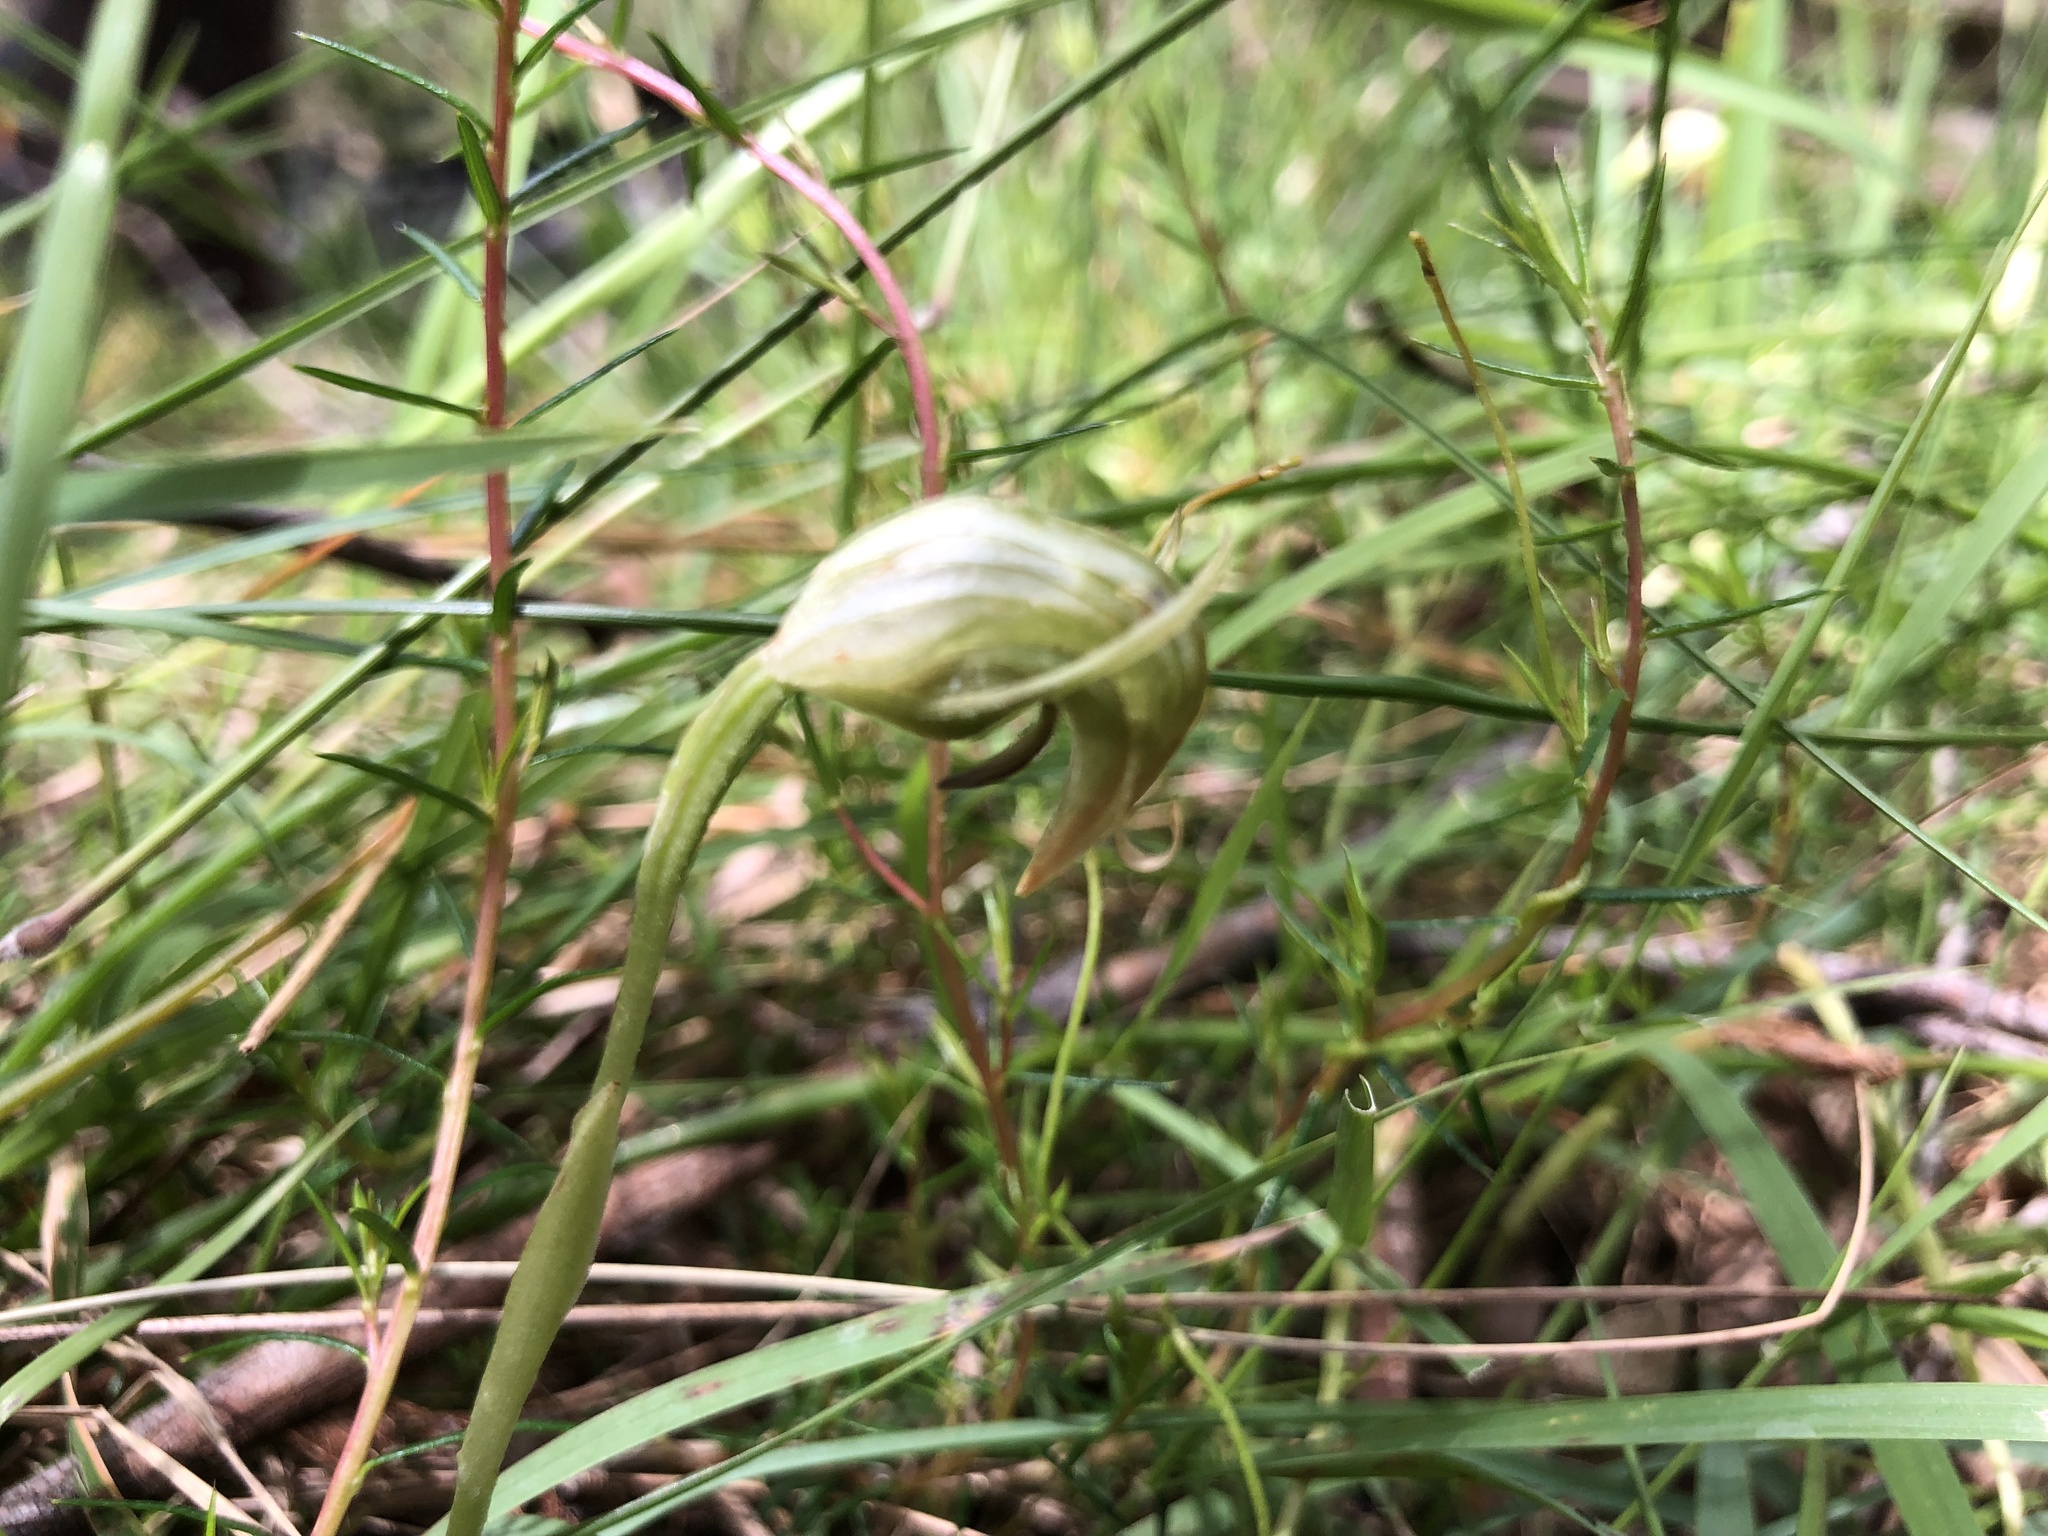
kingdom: Plantae
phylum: Tracheophyta
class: Liliopsida
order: Asparagales
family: Orchidaceae
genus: Pterostylis
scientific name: Pterostylis nutans
